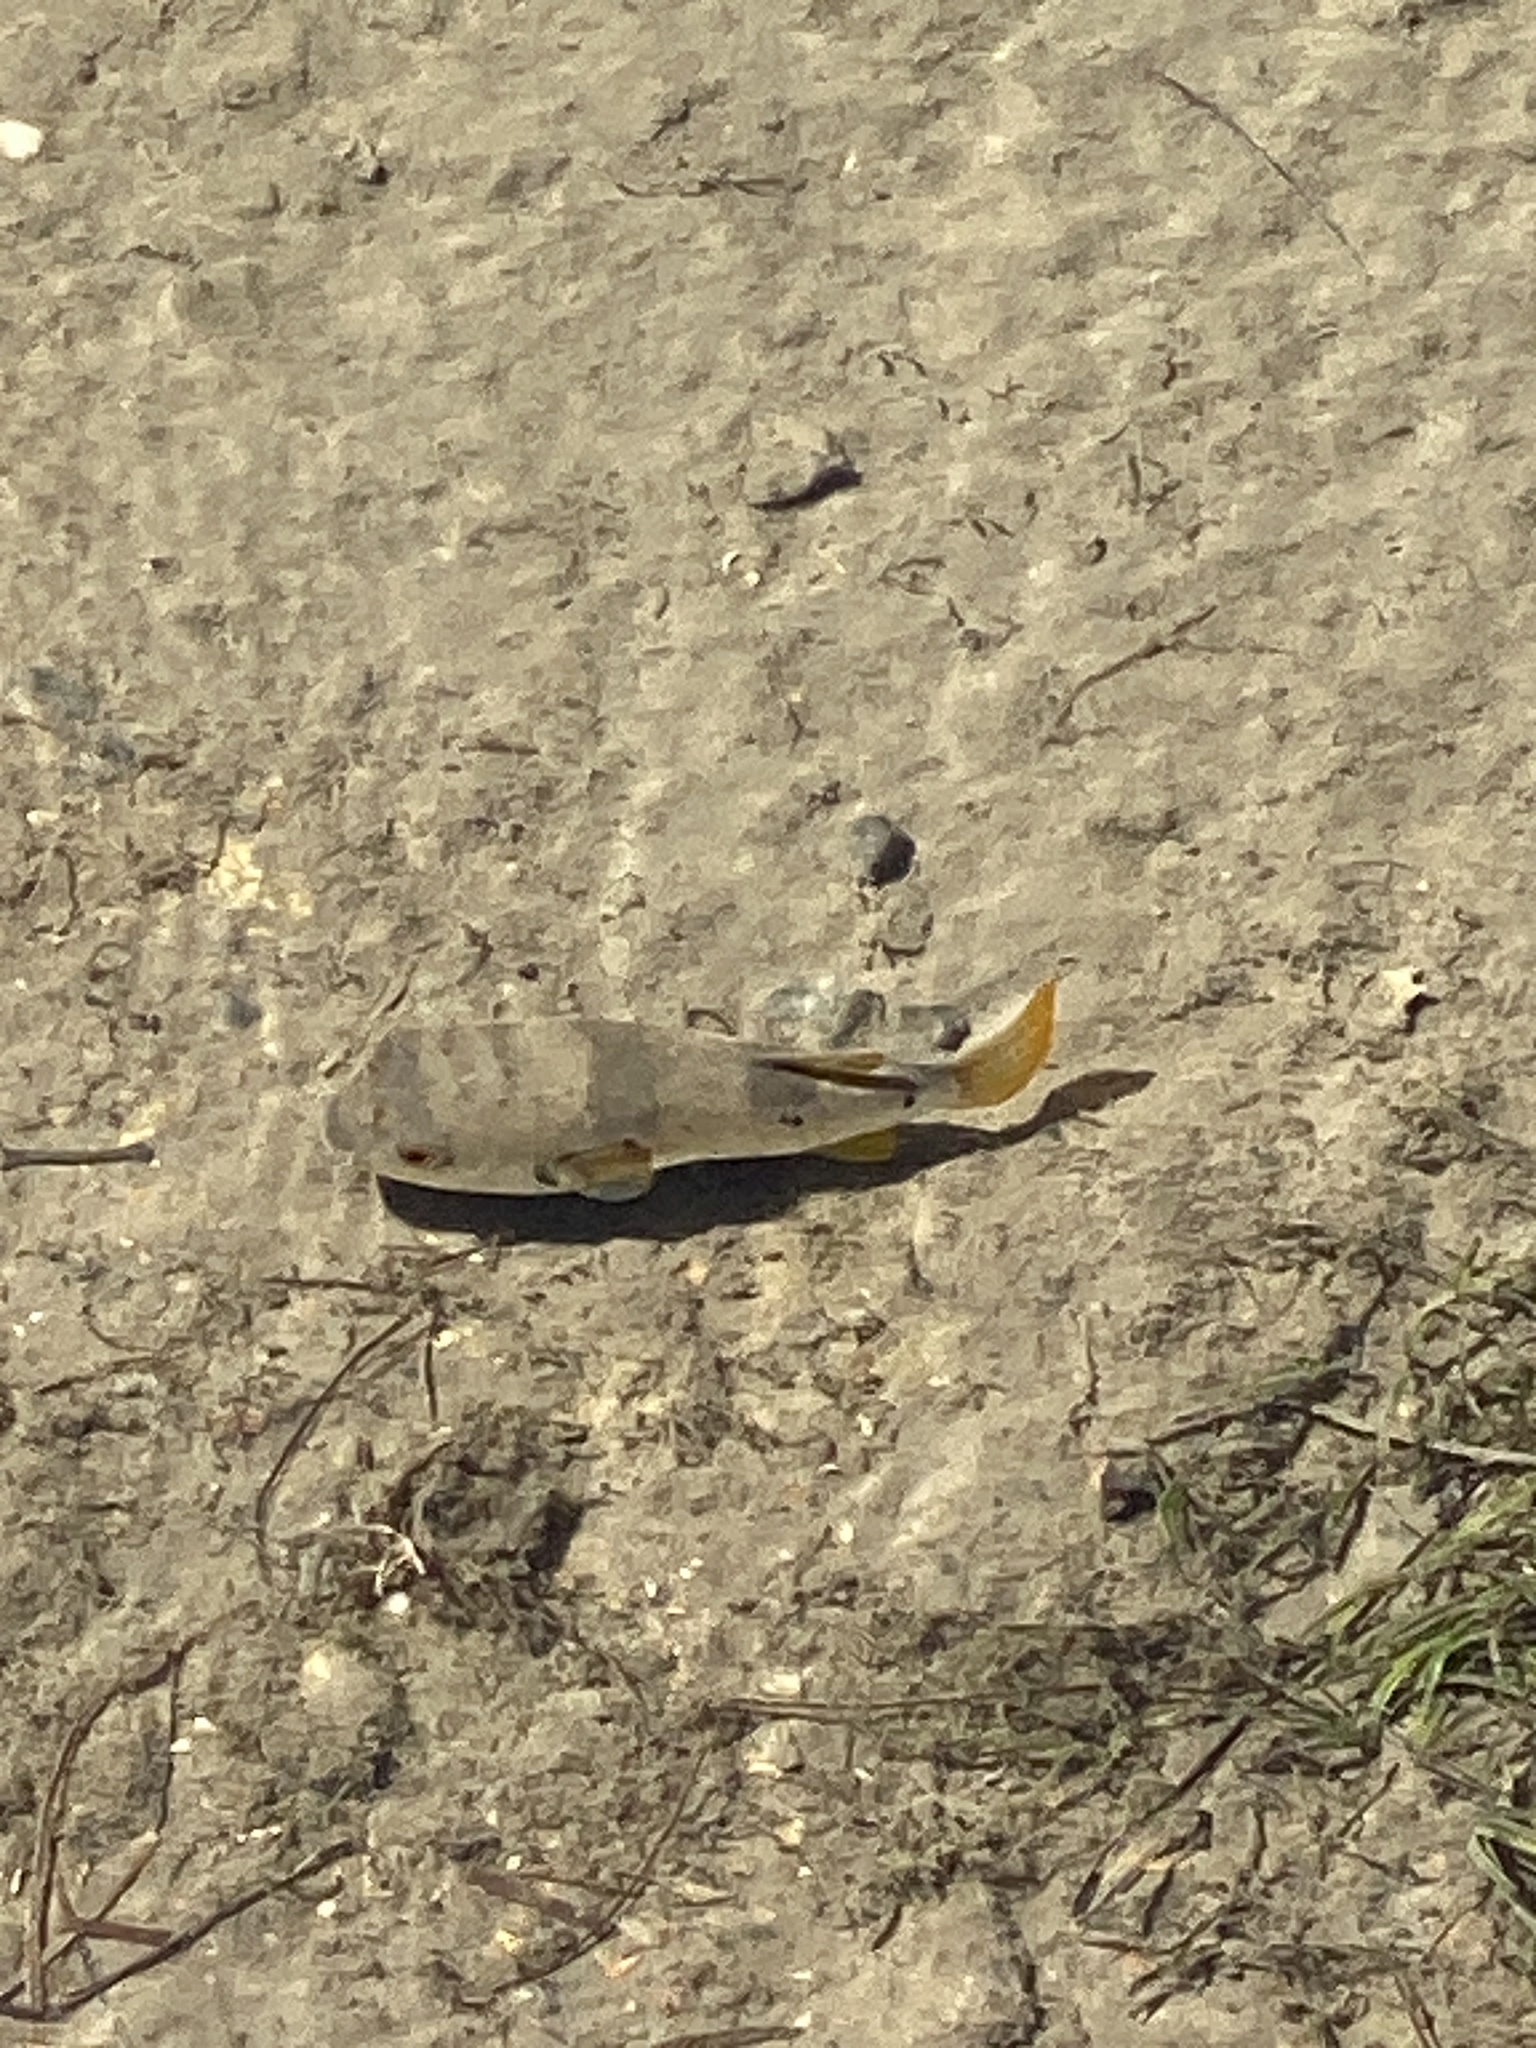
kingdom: Animalia
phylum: Chordata
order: Tetraodontiformes
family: Tetraodontidae
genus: Marilyna
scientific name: Marilyna pleurosticta
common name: Banded toadfish
